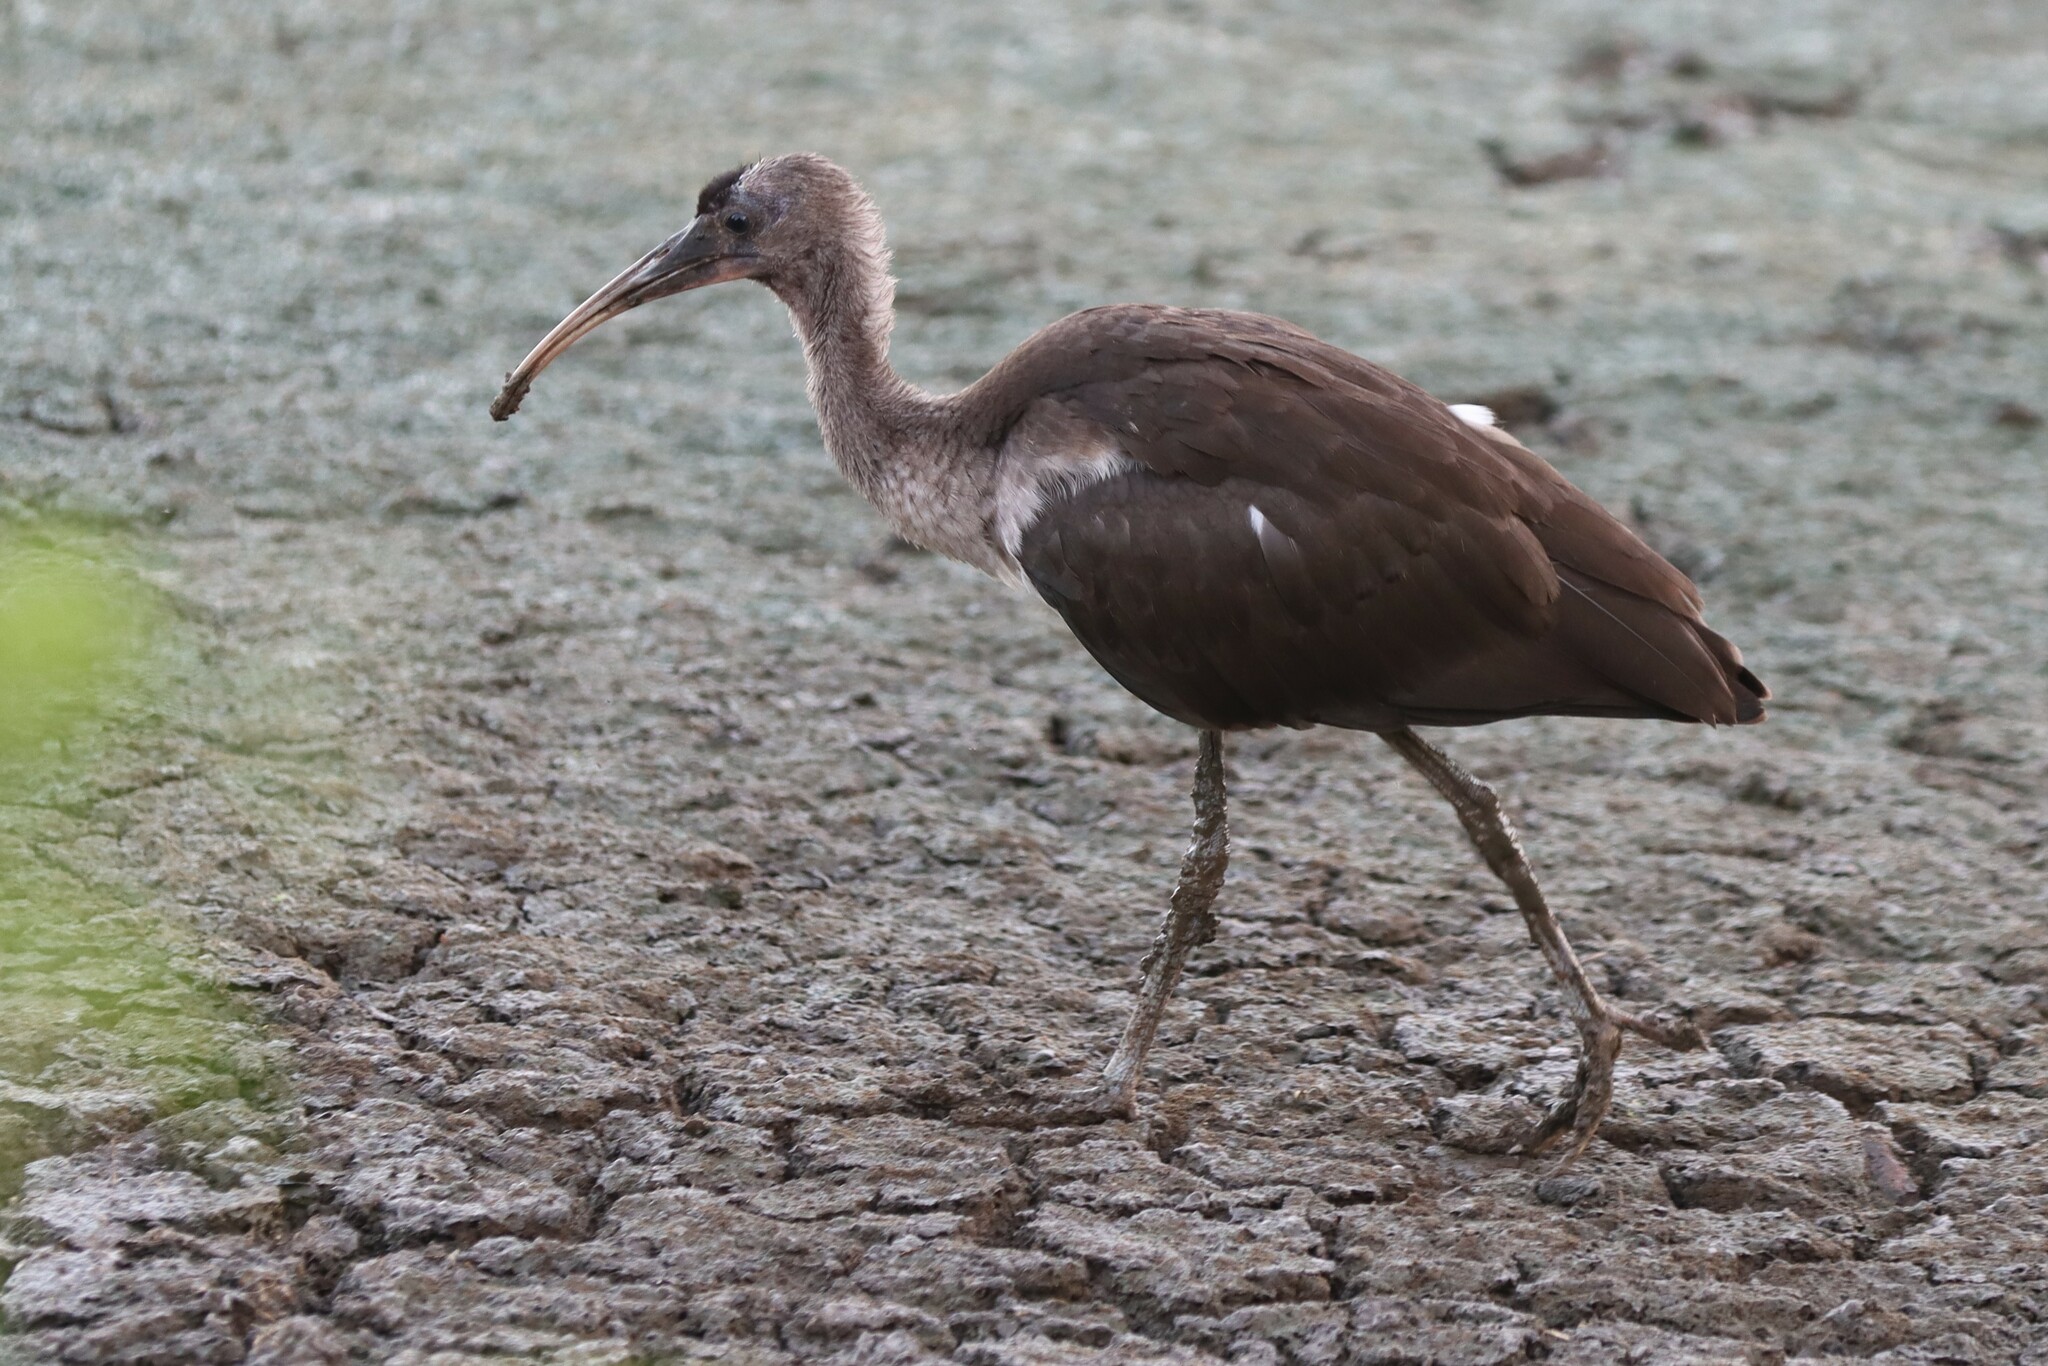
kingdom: Animalia
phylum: Chordata
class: Aves
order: Pelecaniformes
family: Threskiornithidae
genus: Eudocimus
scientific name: Eudocimus albus
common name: White ibis
